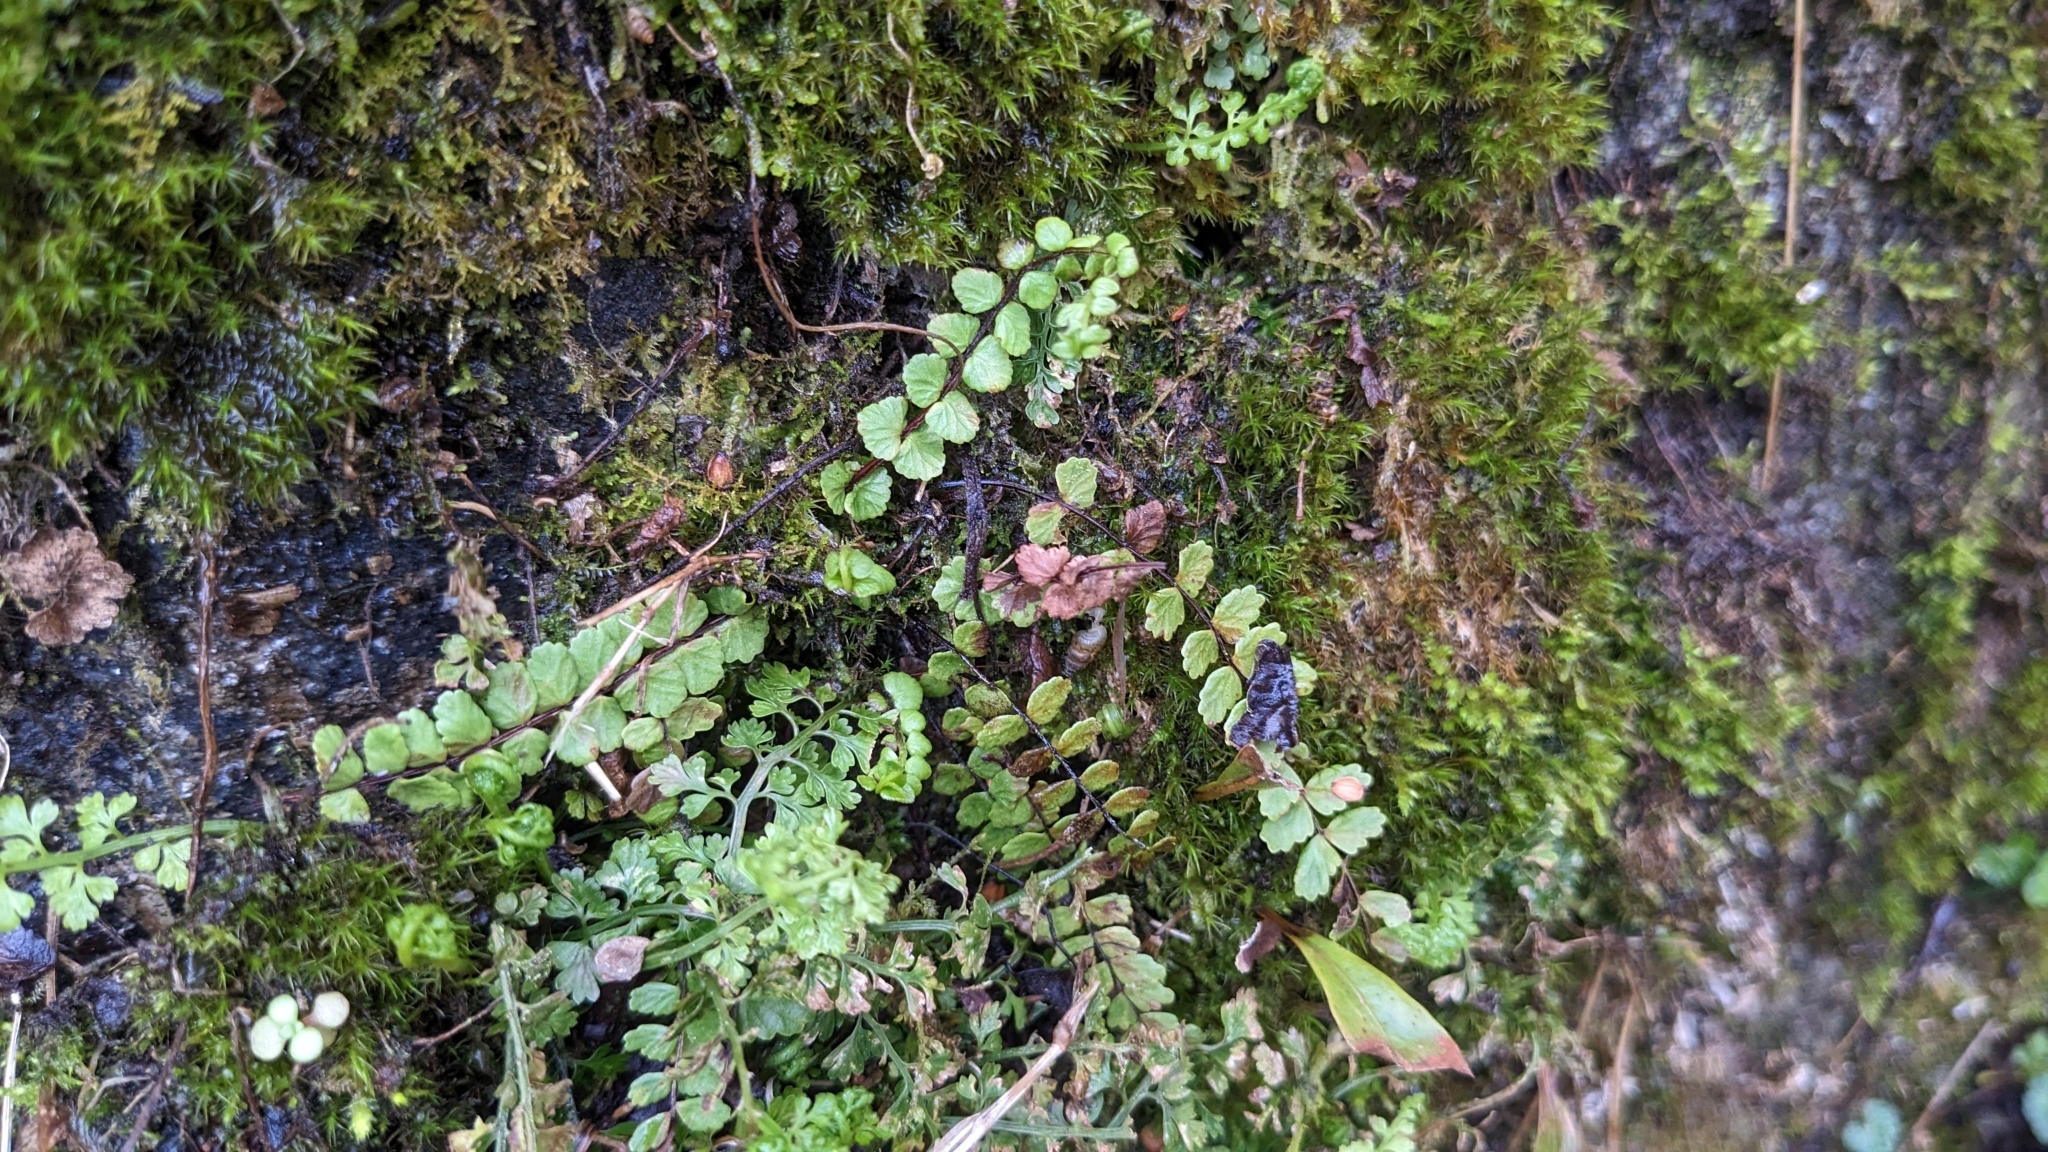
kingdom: Plantae
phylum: Tracheophyta
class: Polypodiopsida
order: Polypodiales
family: Aspleniaceae
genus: Asplenium
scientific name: Asplenium trichomanes
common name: Maidenhair spleenwort
